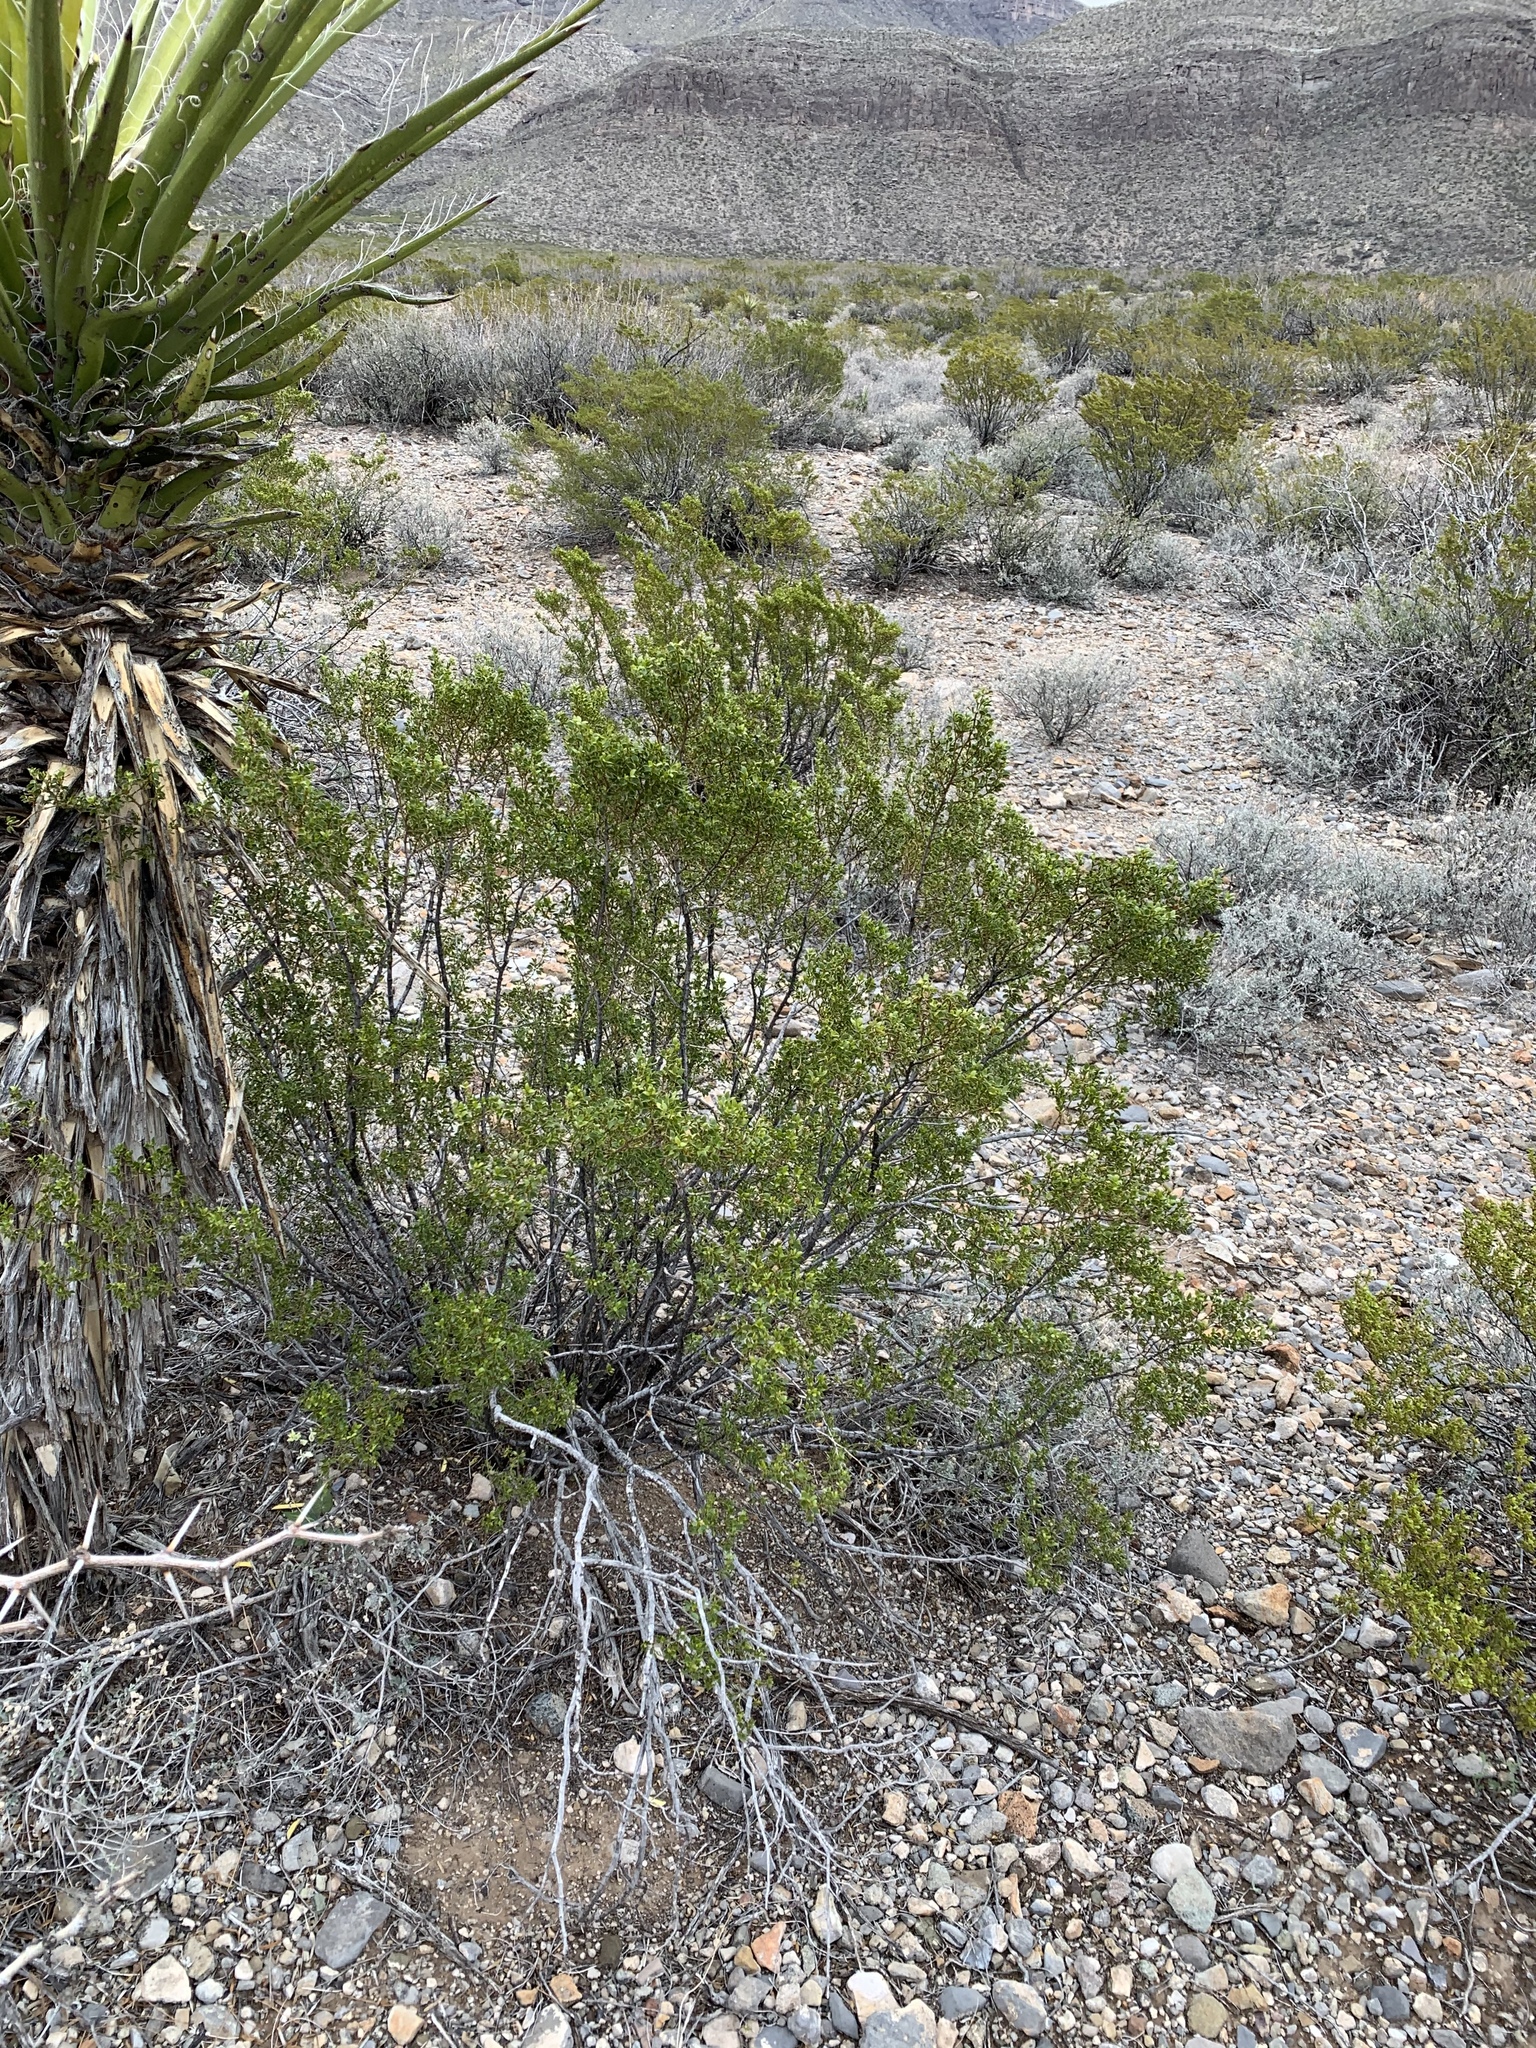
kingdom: Plantae
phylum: Tracheophyta
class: Magnoliopsida
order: Zygophyllales
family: Zygophyllaceae
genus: Larrea
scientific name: Larrea tridentata
